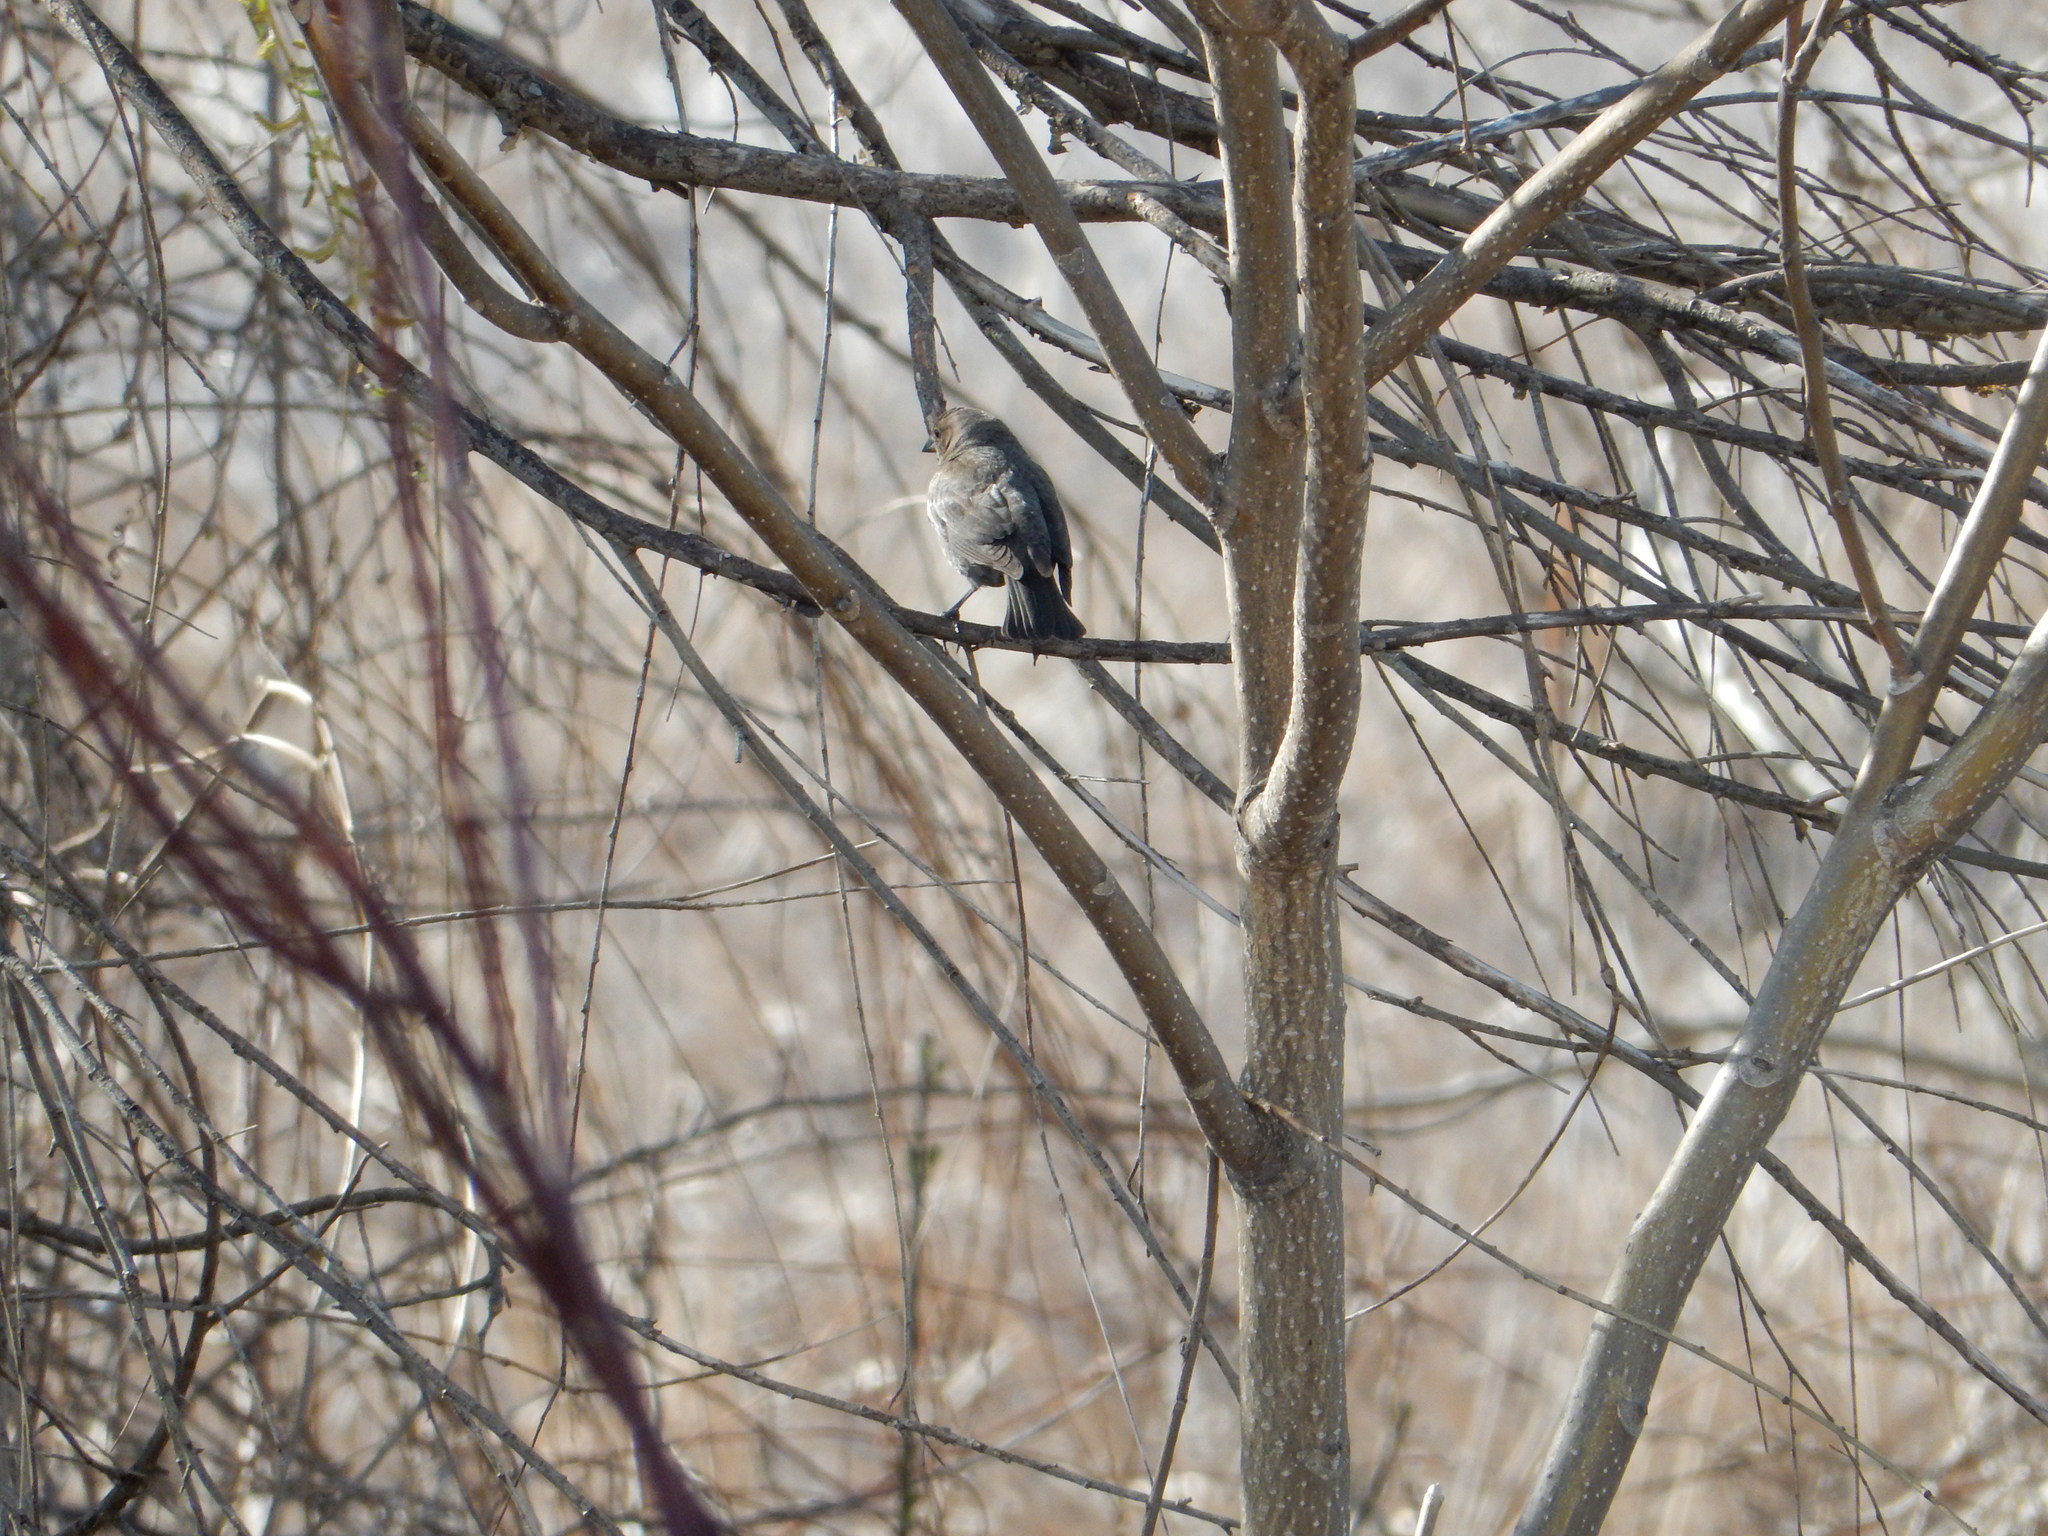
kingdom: Animalia
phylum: Chordata
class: Aves
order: Passeriformes
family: Icteridae
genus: Molothrus
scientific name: Molothrus ater
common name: Brown-headed cowbird
